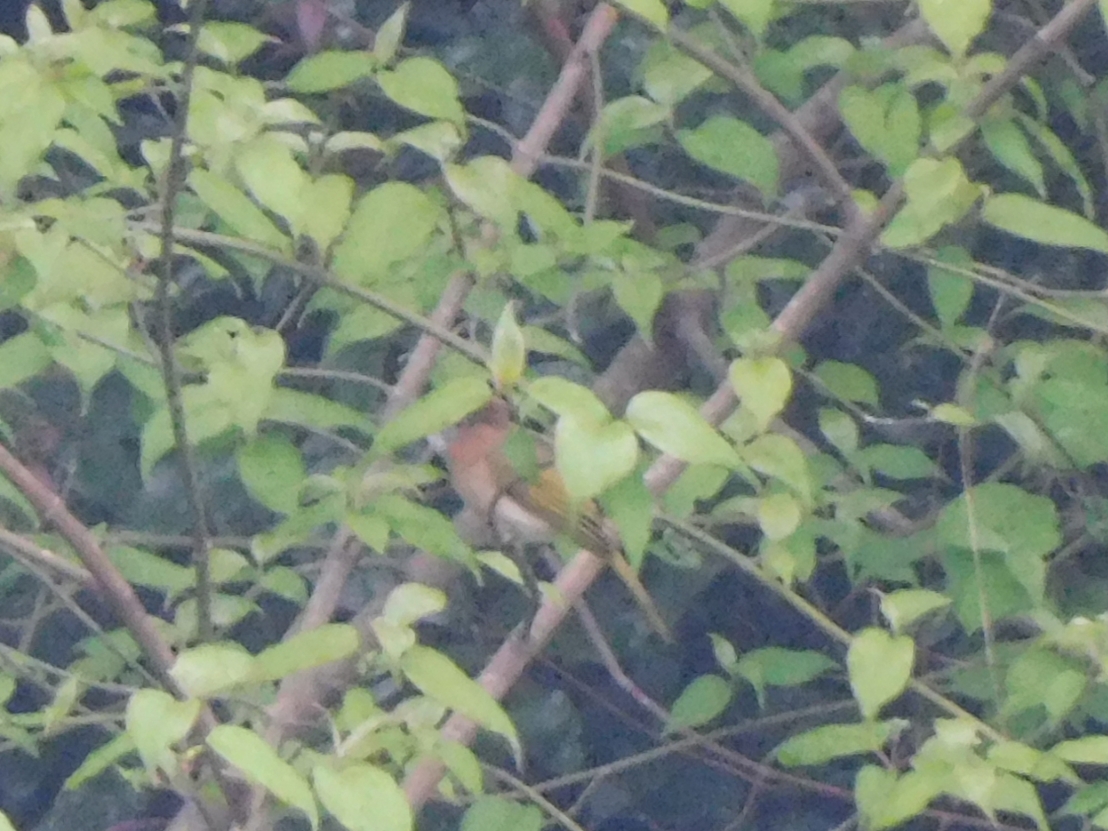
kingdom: Animalia
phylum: Chordata
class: Aves
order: Passeriformes
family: Pycnonotidae
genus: Ixos
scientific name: Ixos mcclellandii
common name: Mountain bulbul
